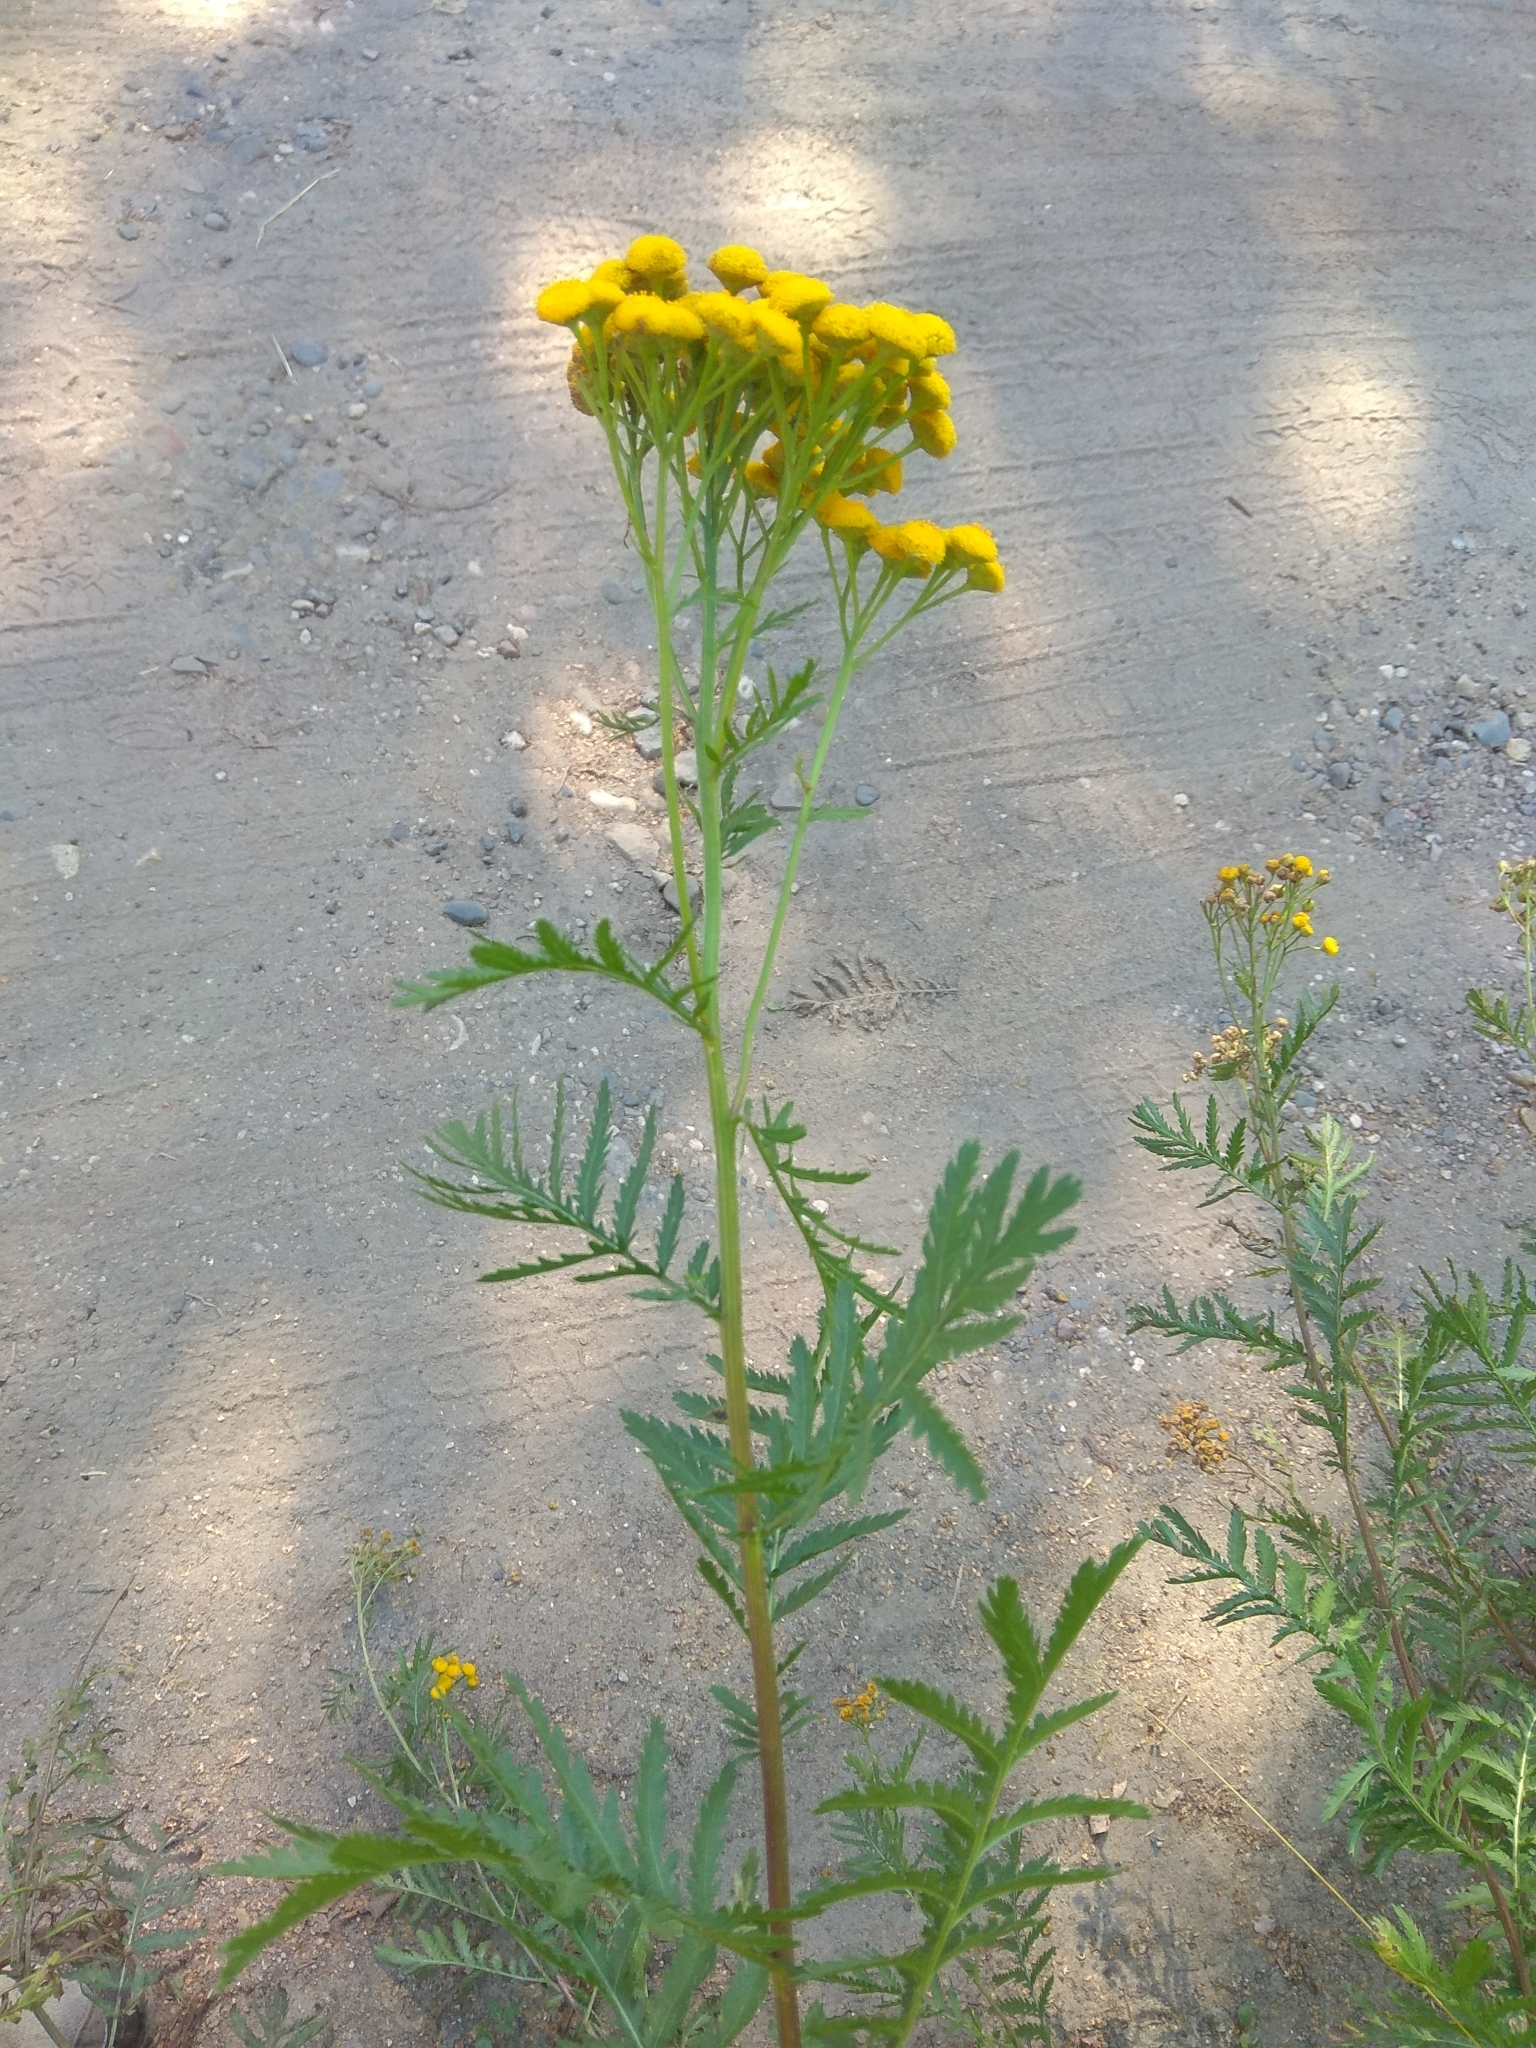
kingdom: Plantae
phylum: Tracheophyta
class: Magnoliopsida
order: Asterales
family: Asteraceae
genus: Tanacetum
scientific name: Tanacetum vulgare
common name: Common tansy
